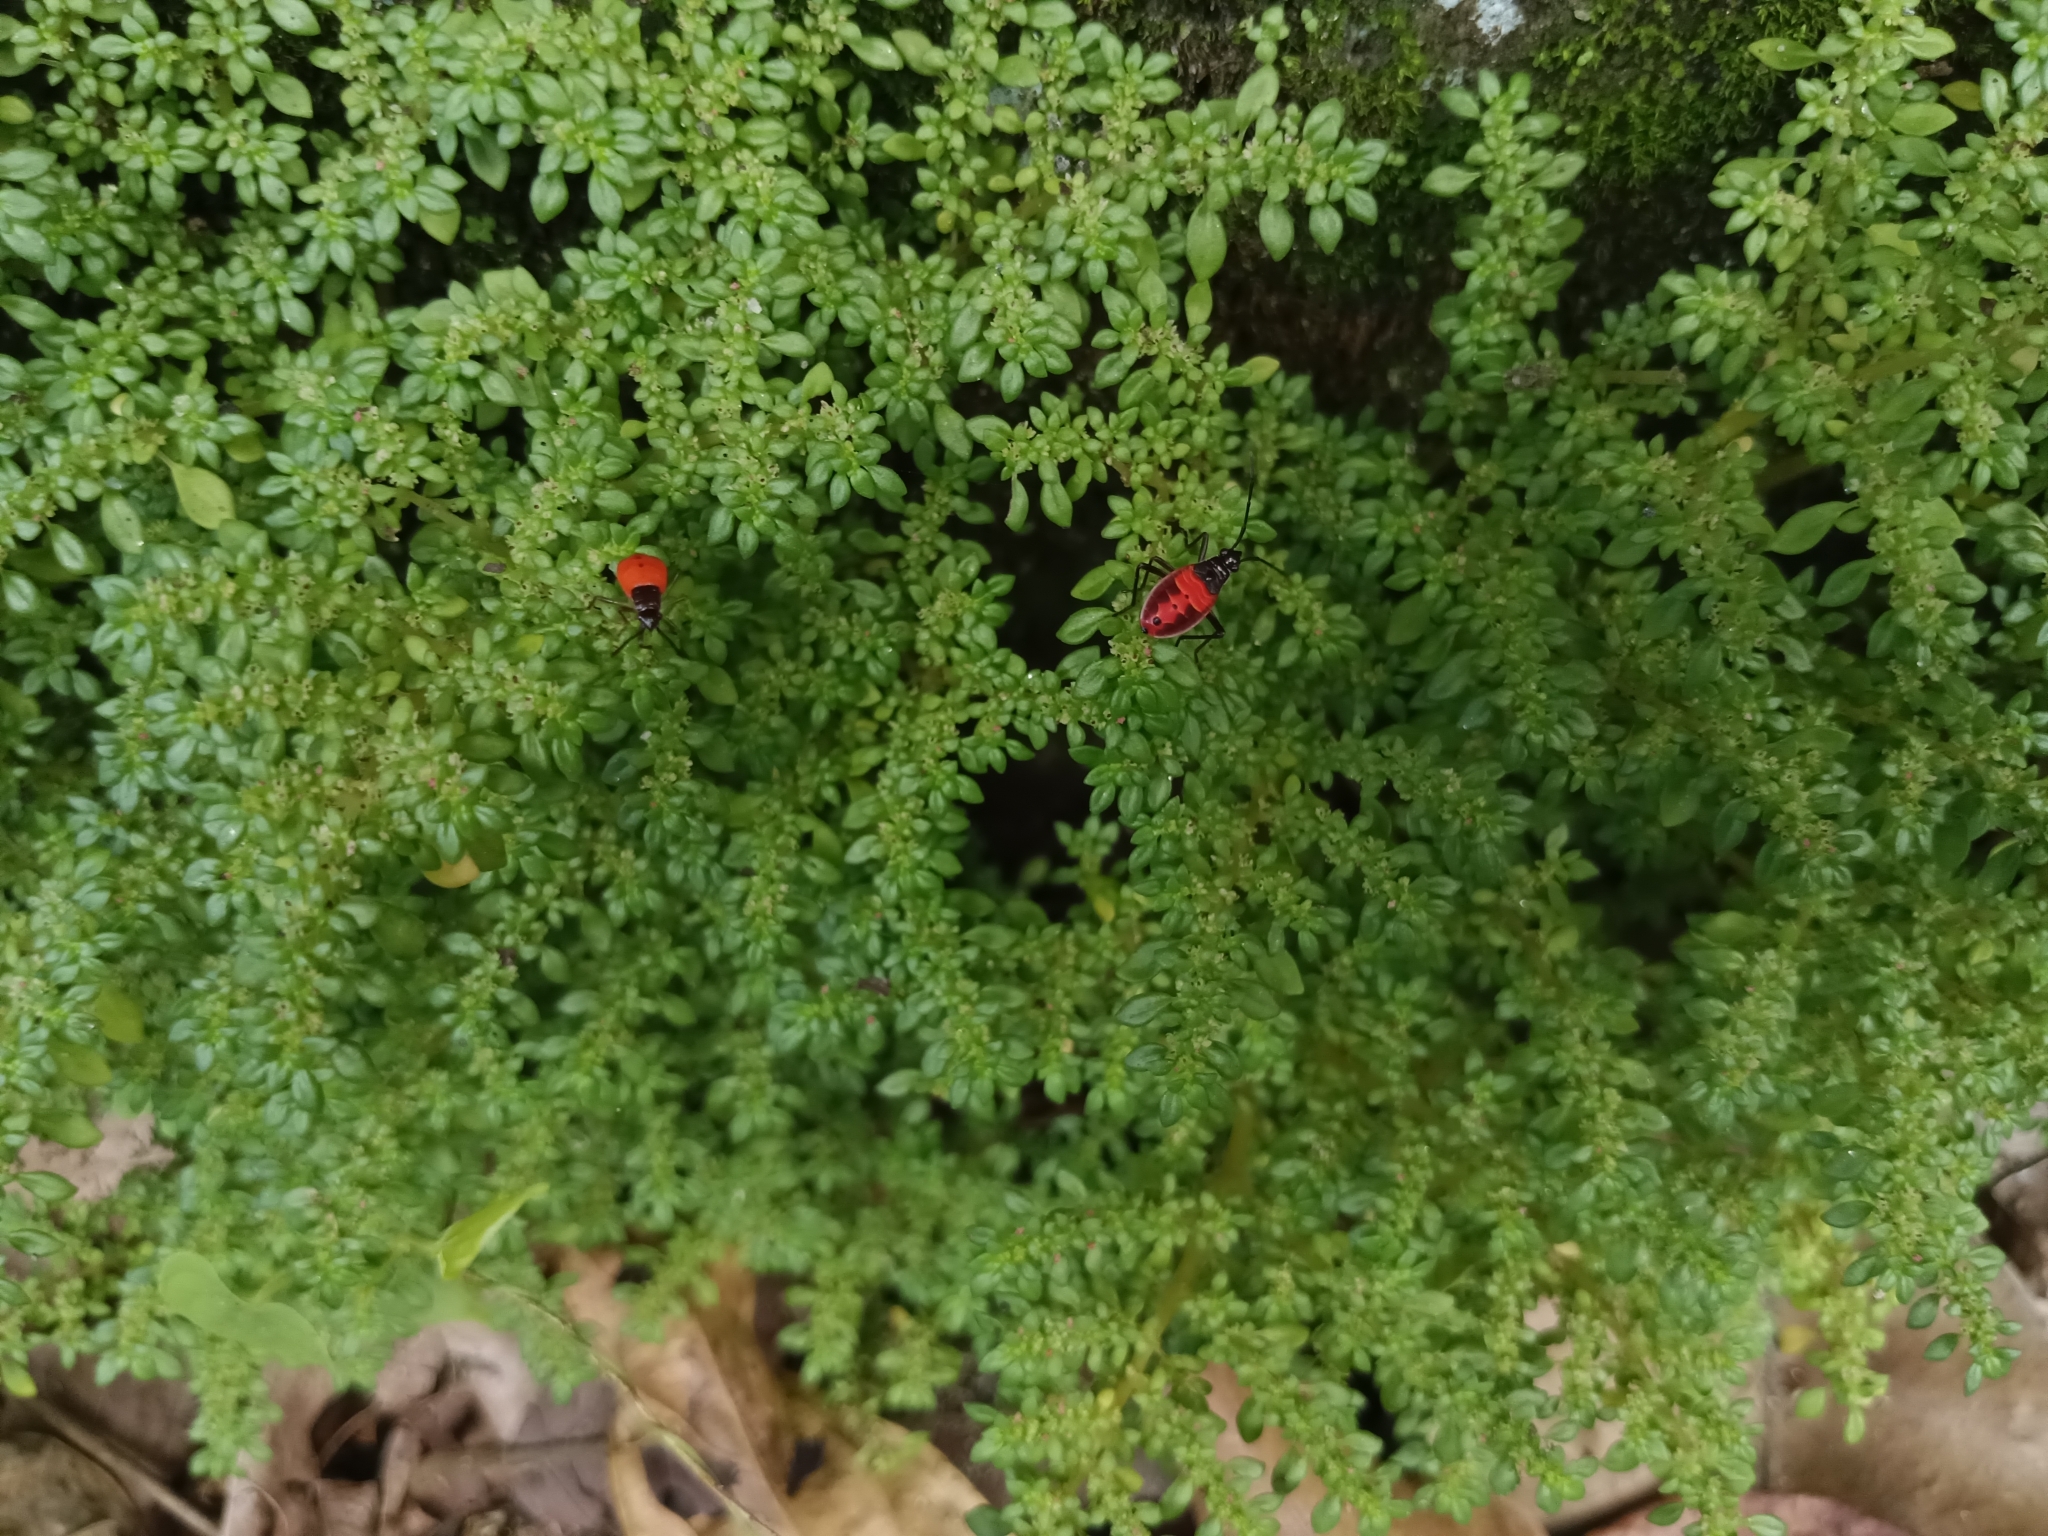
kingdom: Plantae
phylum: Tracheophyta
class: Magnoliopsida
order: Rosales
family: Urticaceae
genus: Pilea
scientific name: Pilea microphylla
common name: Artillery-plant
